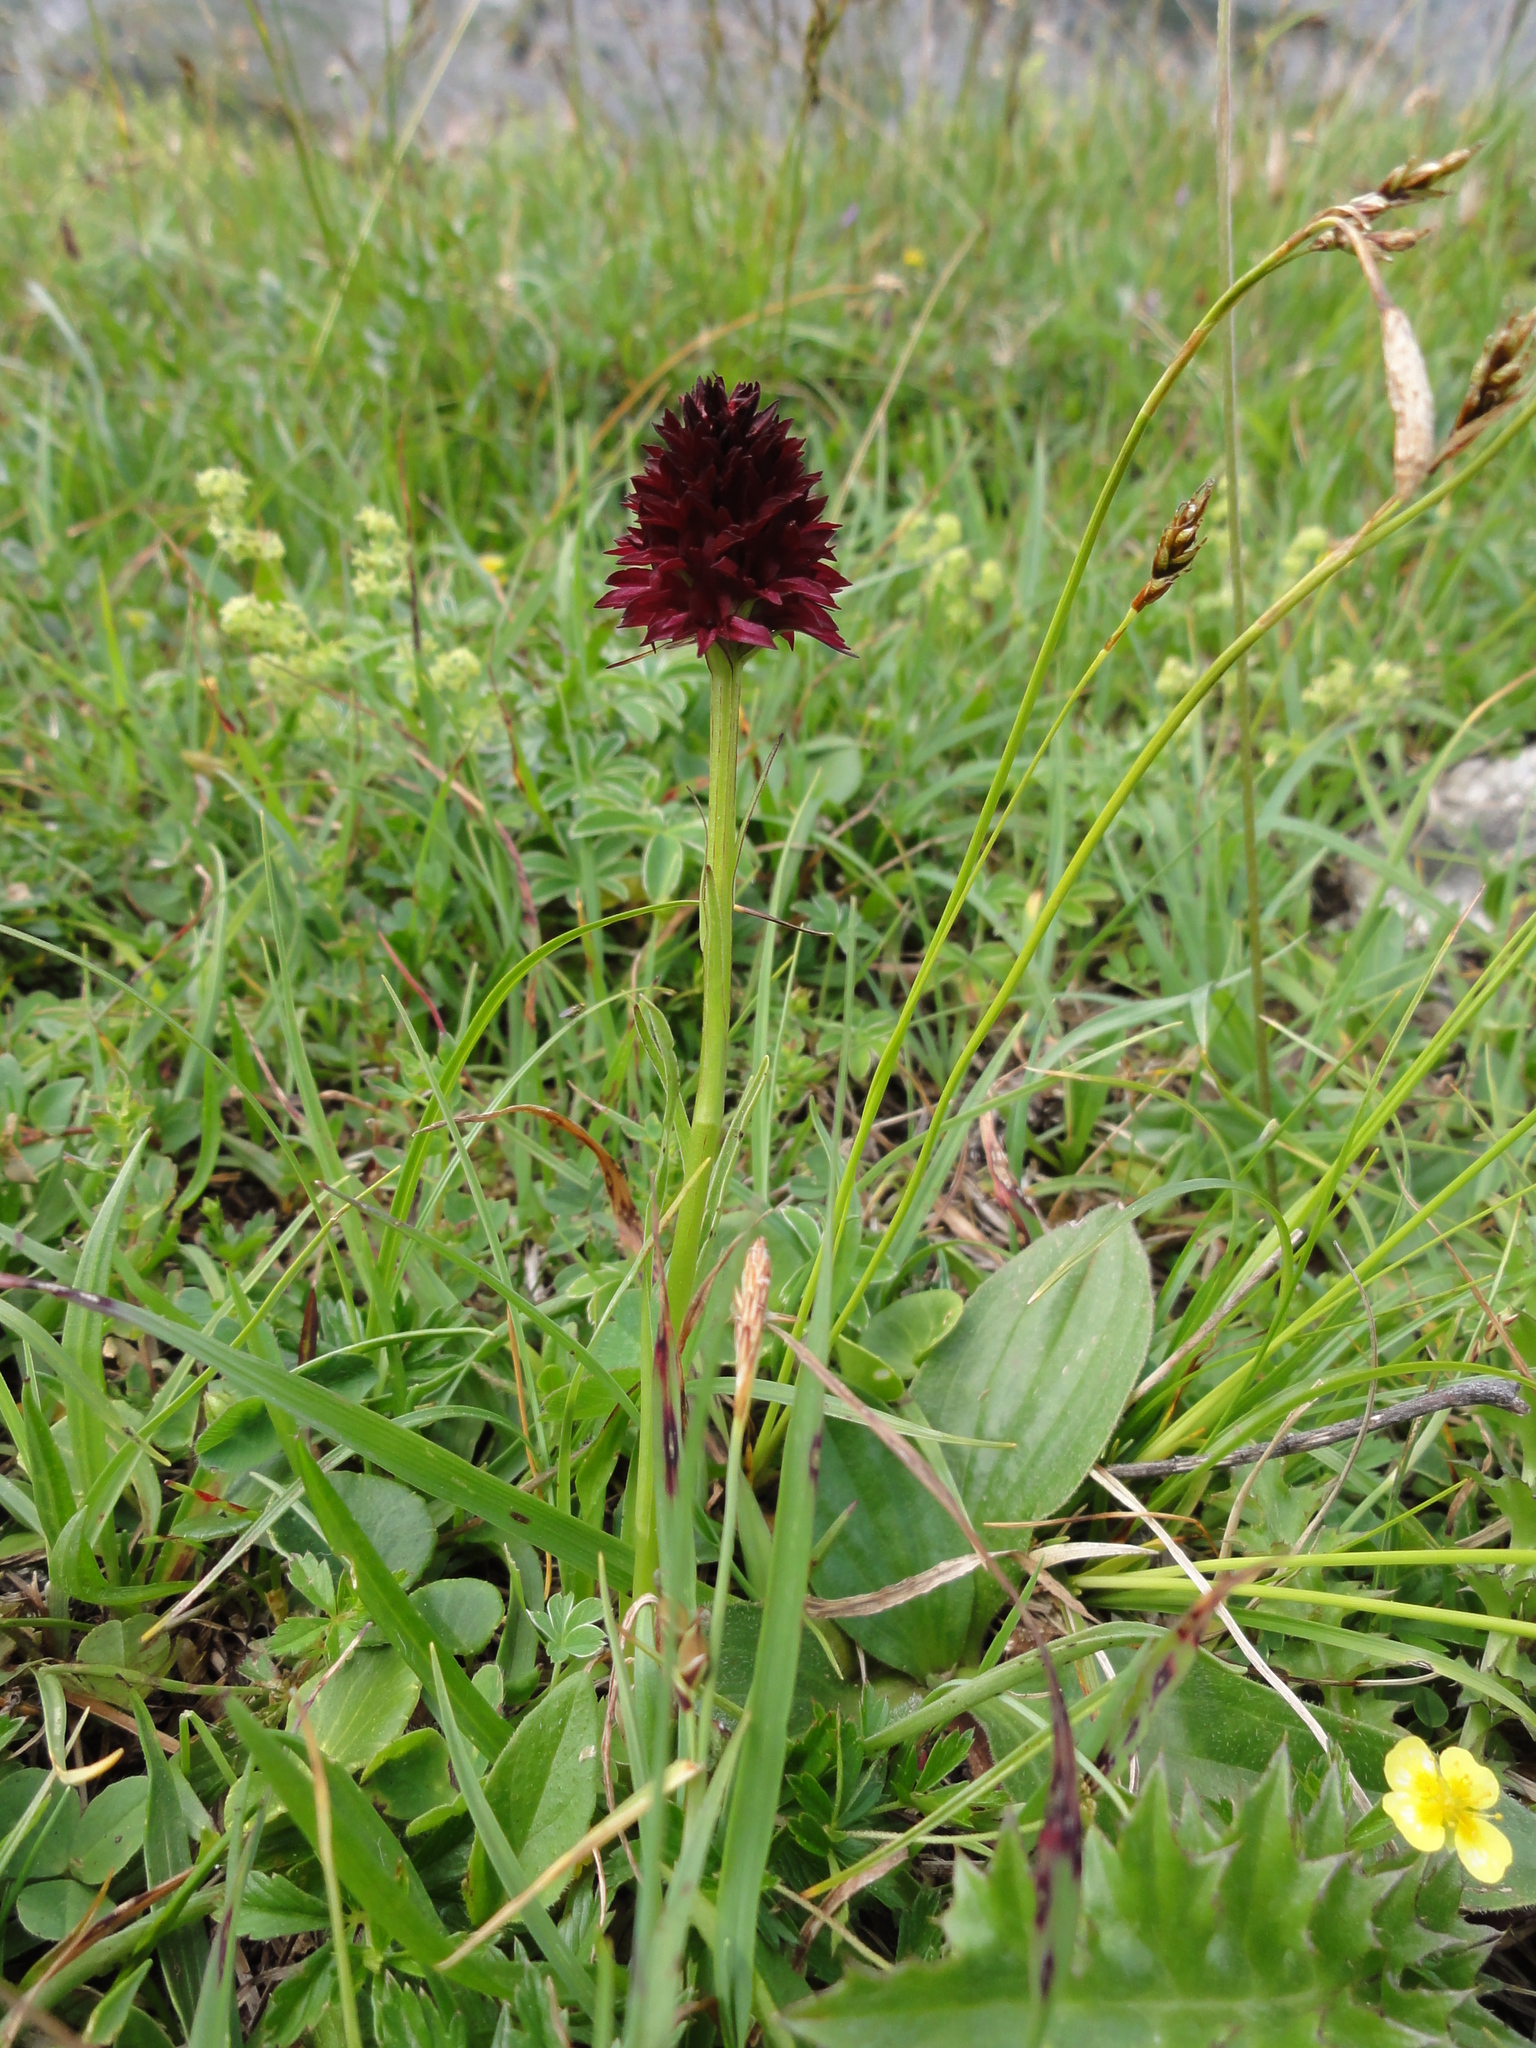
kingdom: Plantae
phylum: Tracheophyta
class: Liliopsida
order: Asparagales
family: Orchidaceae
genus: Gymnadenia
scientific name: Gymnadenia rhellicani
